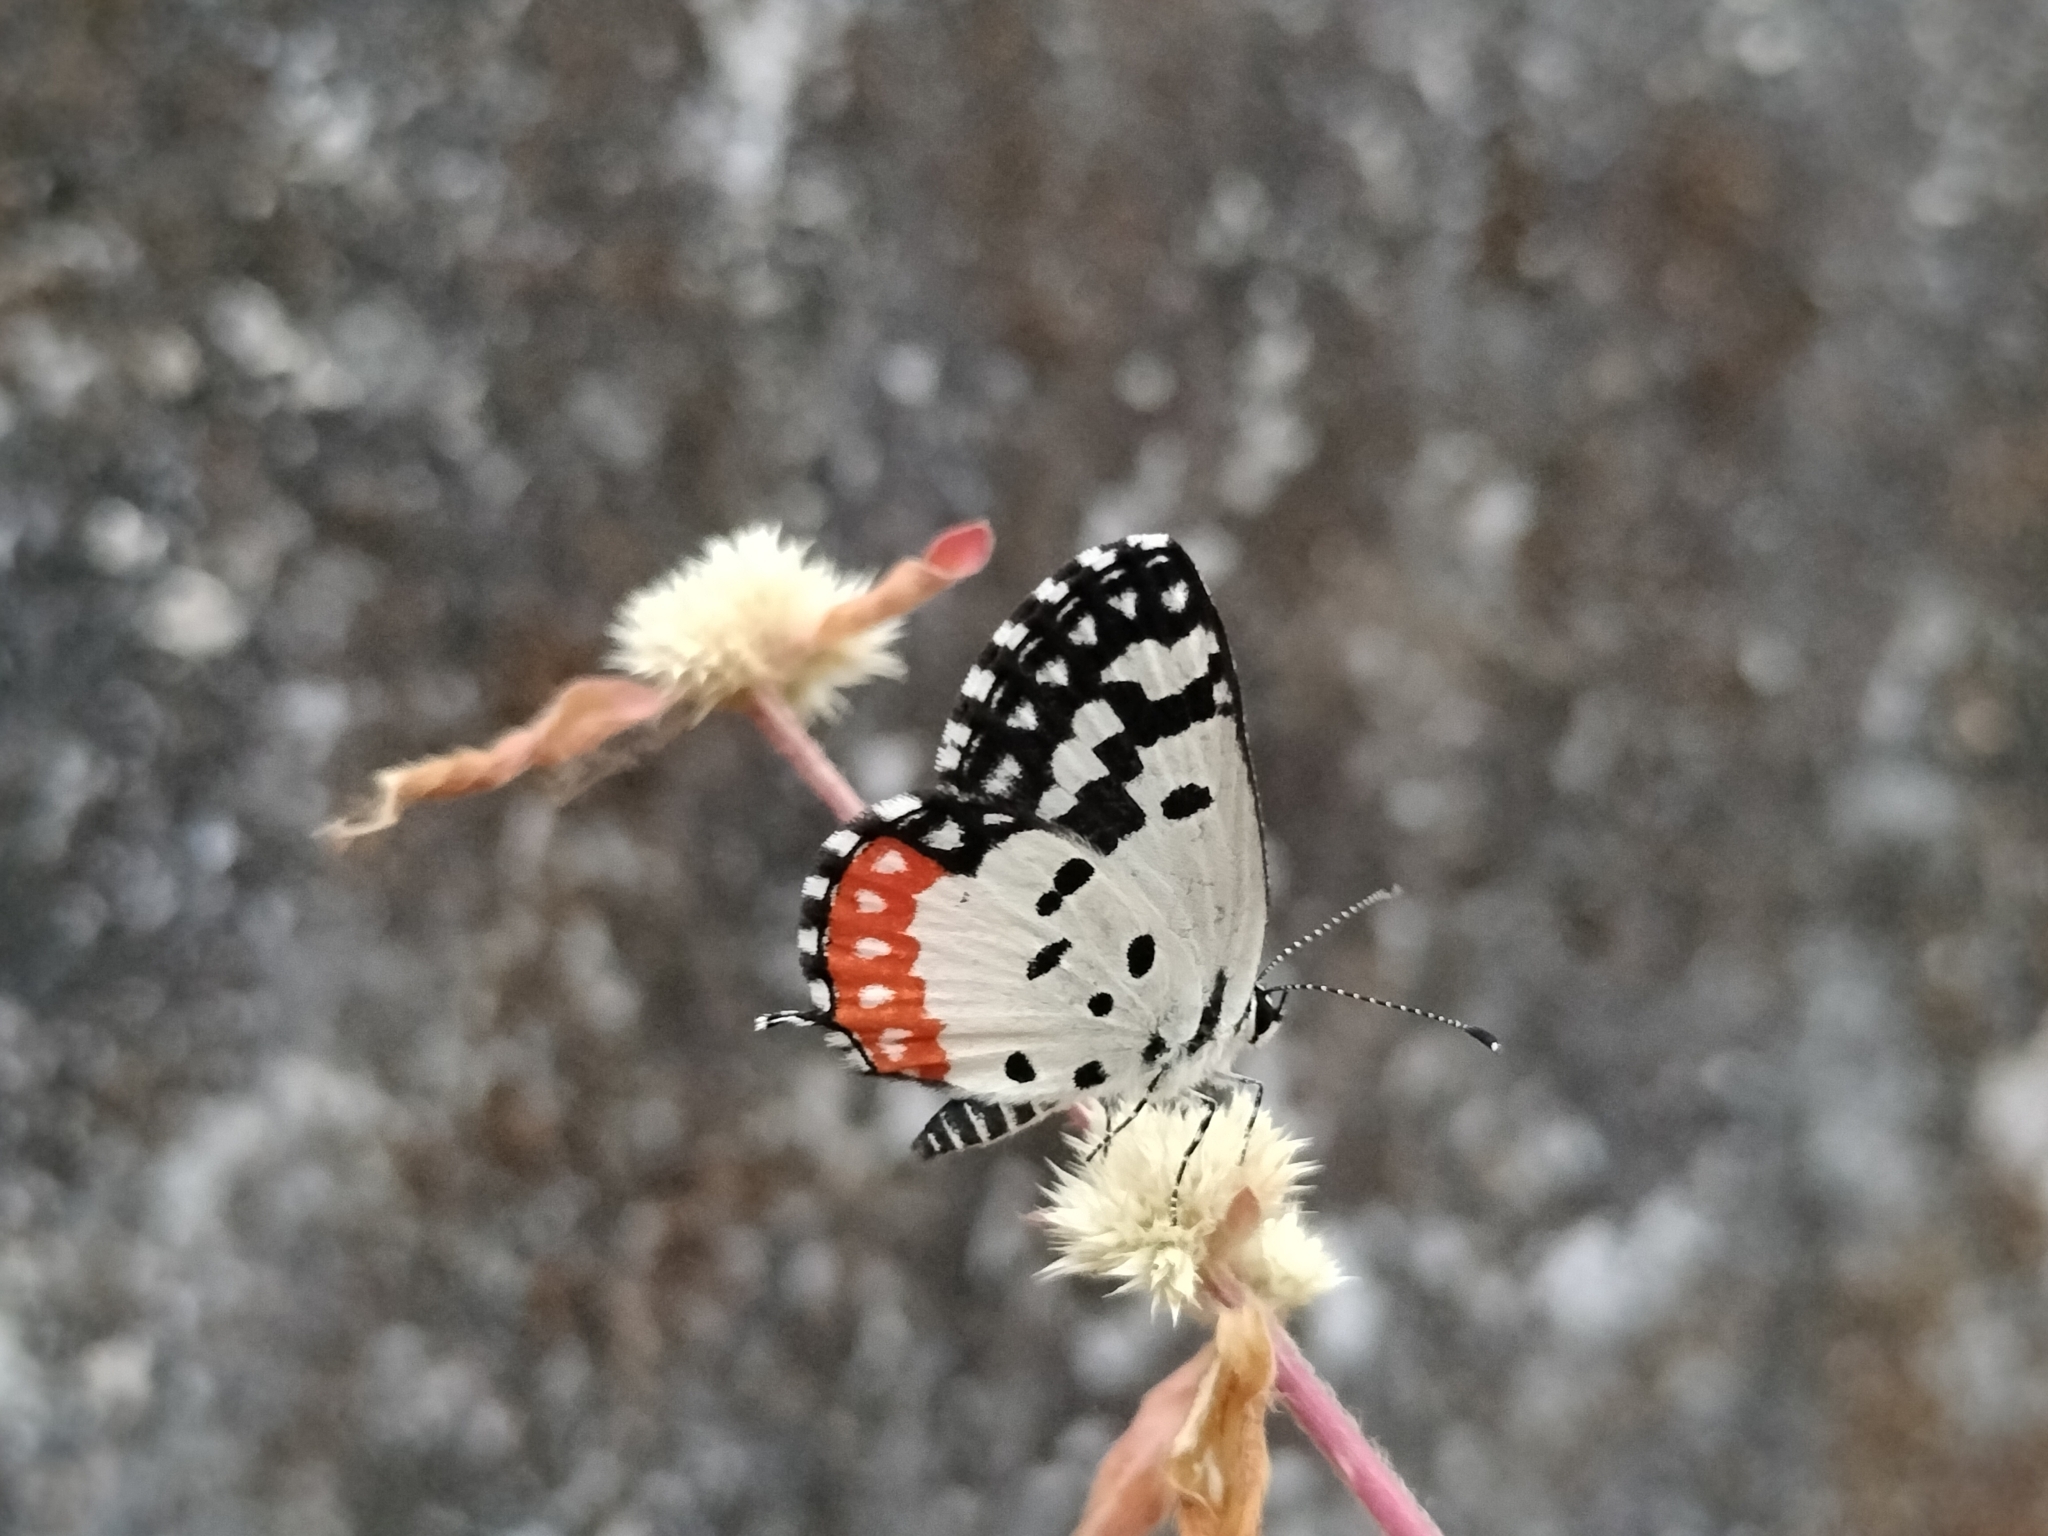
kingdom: Animalia
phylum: Arthropoda
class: Insecta
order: Lepidoptera
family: Lycaenidae
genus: Talicada
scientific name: Talicada nyseus
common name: Red pierrot
